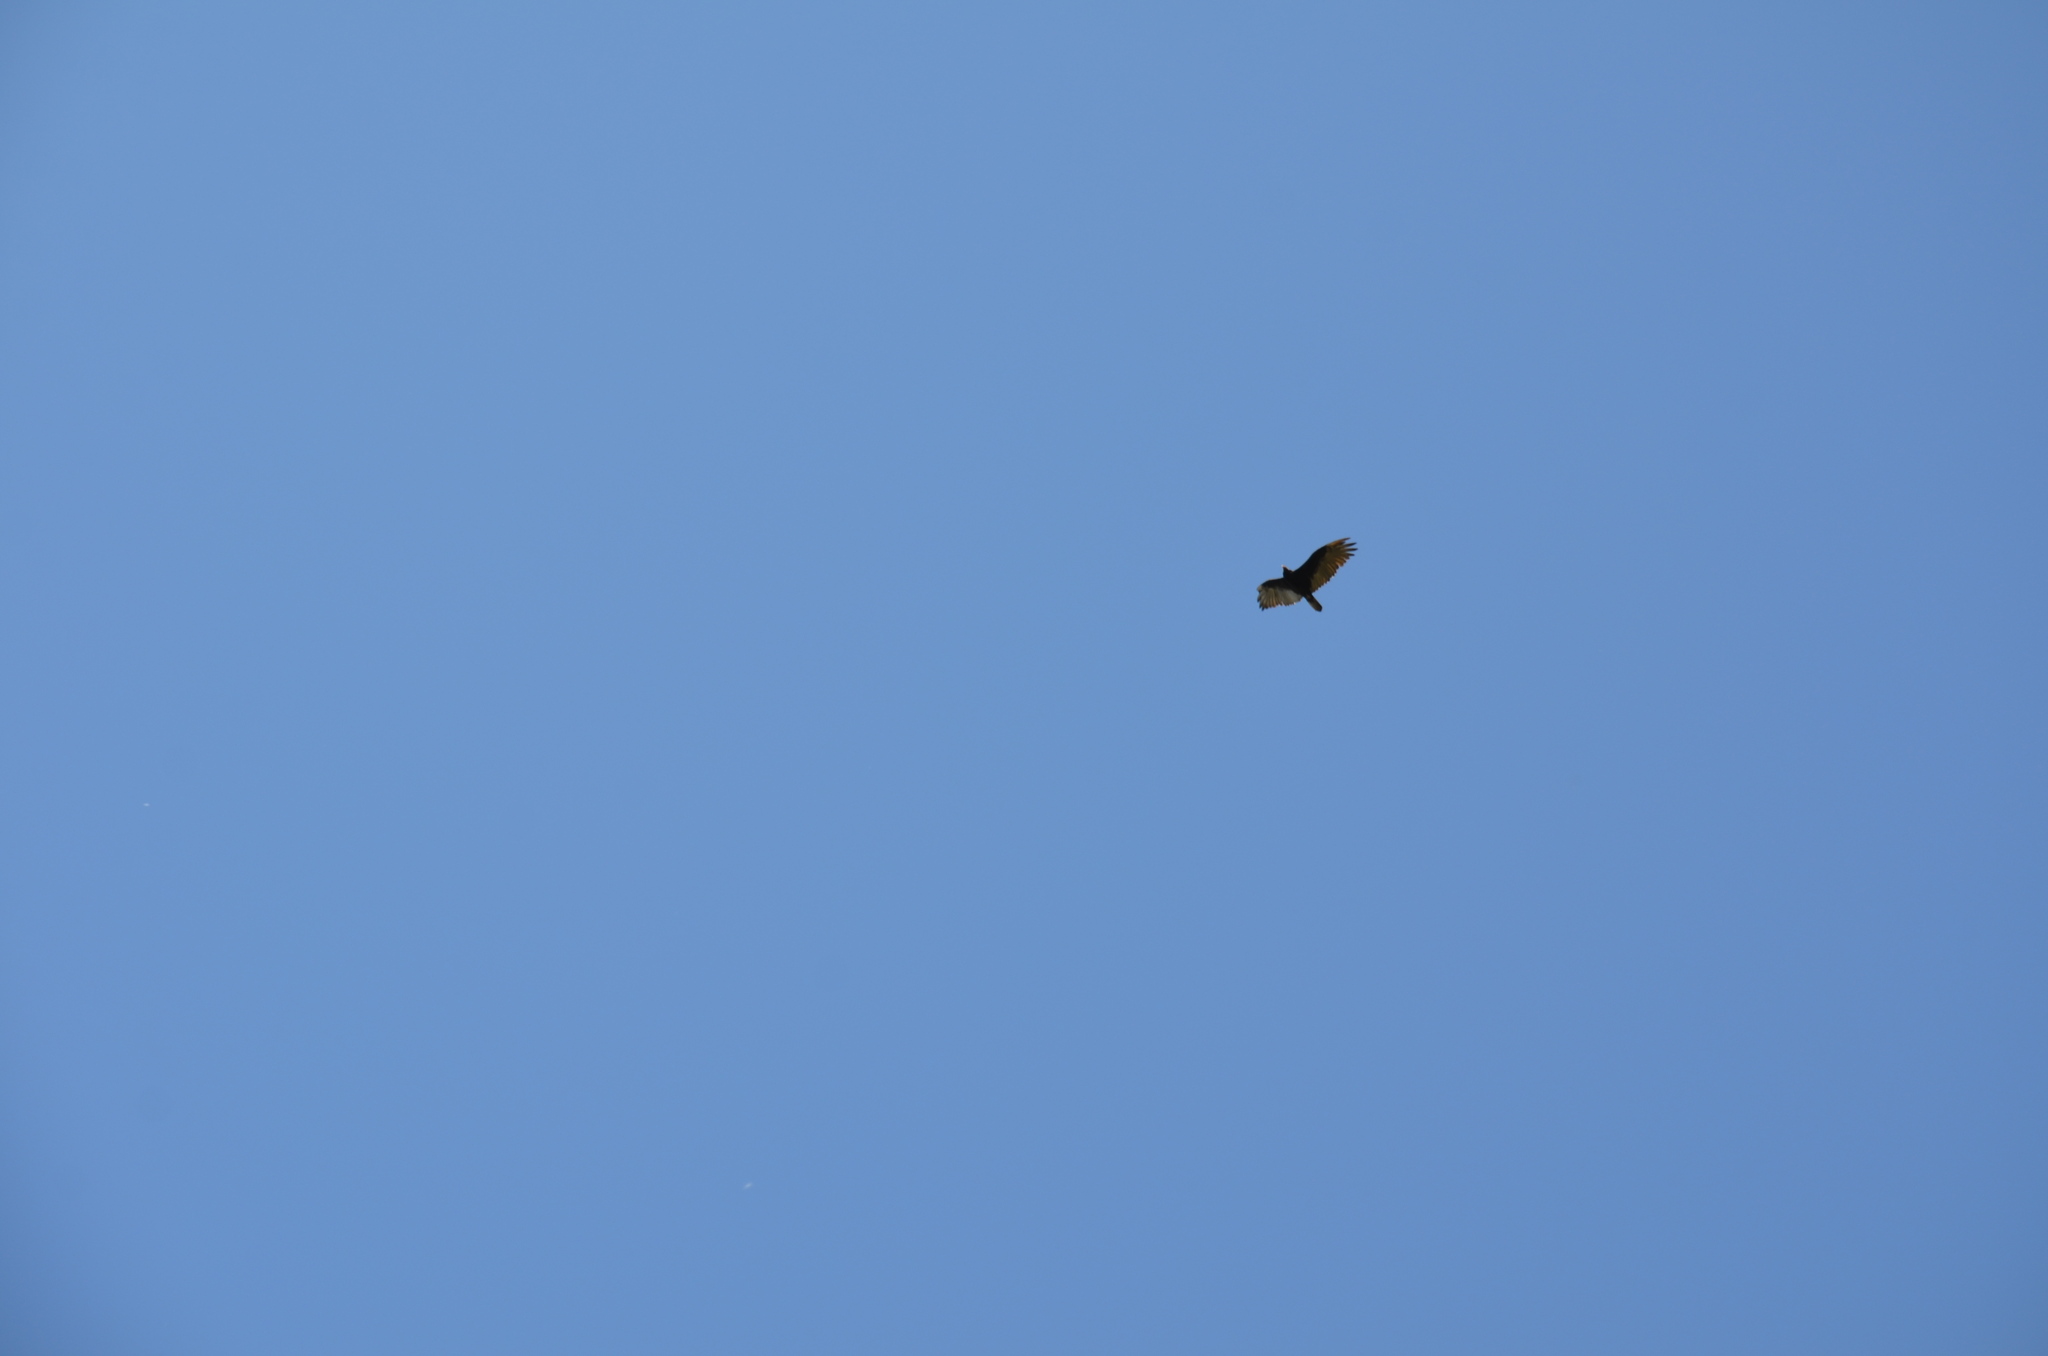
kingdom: Animalia
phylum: Chordata
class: Aves
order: Accipitriformes
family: Cathartidae
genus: Cathartes
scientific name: Cathartes aura
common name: Turkey vulture
